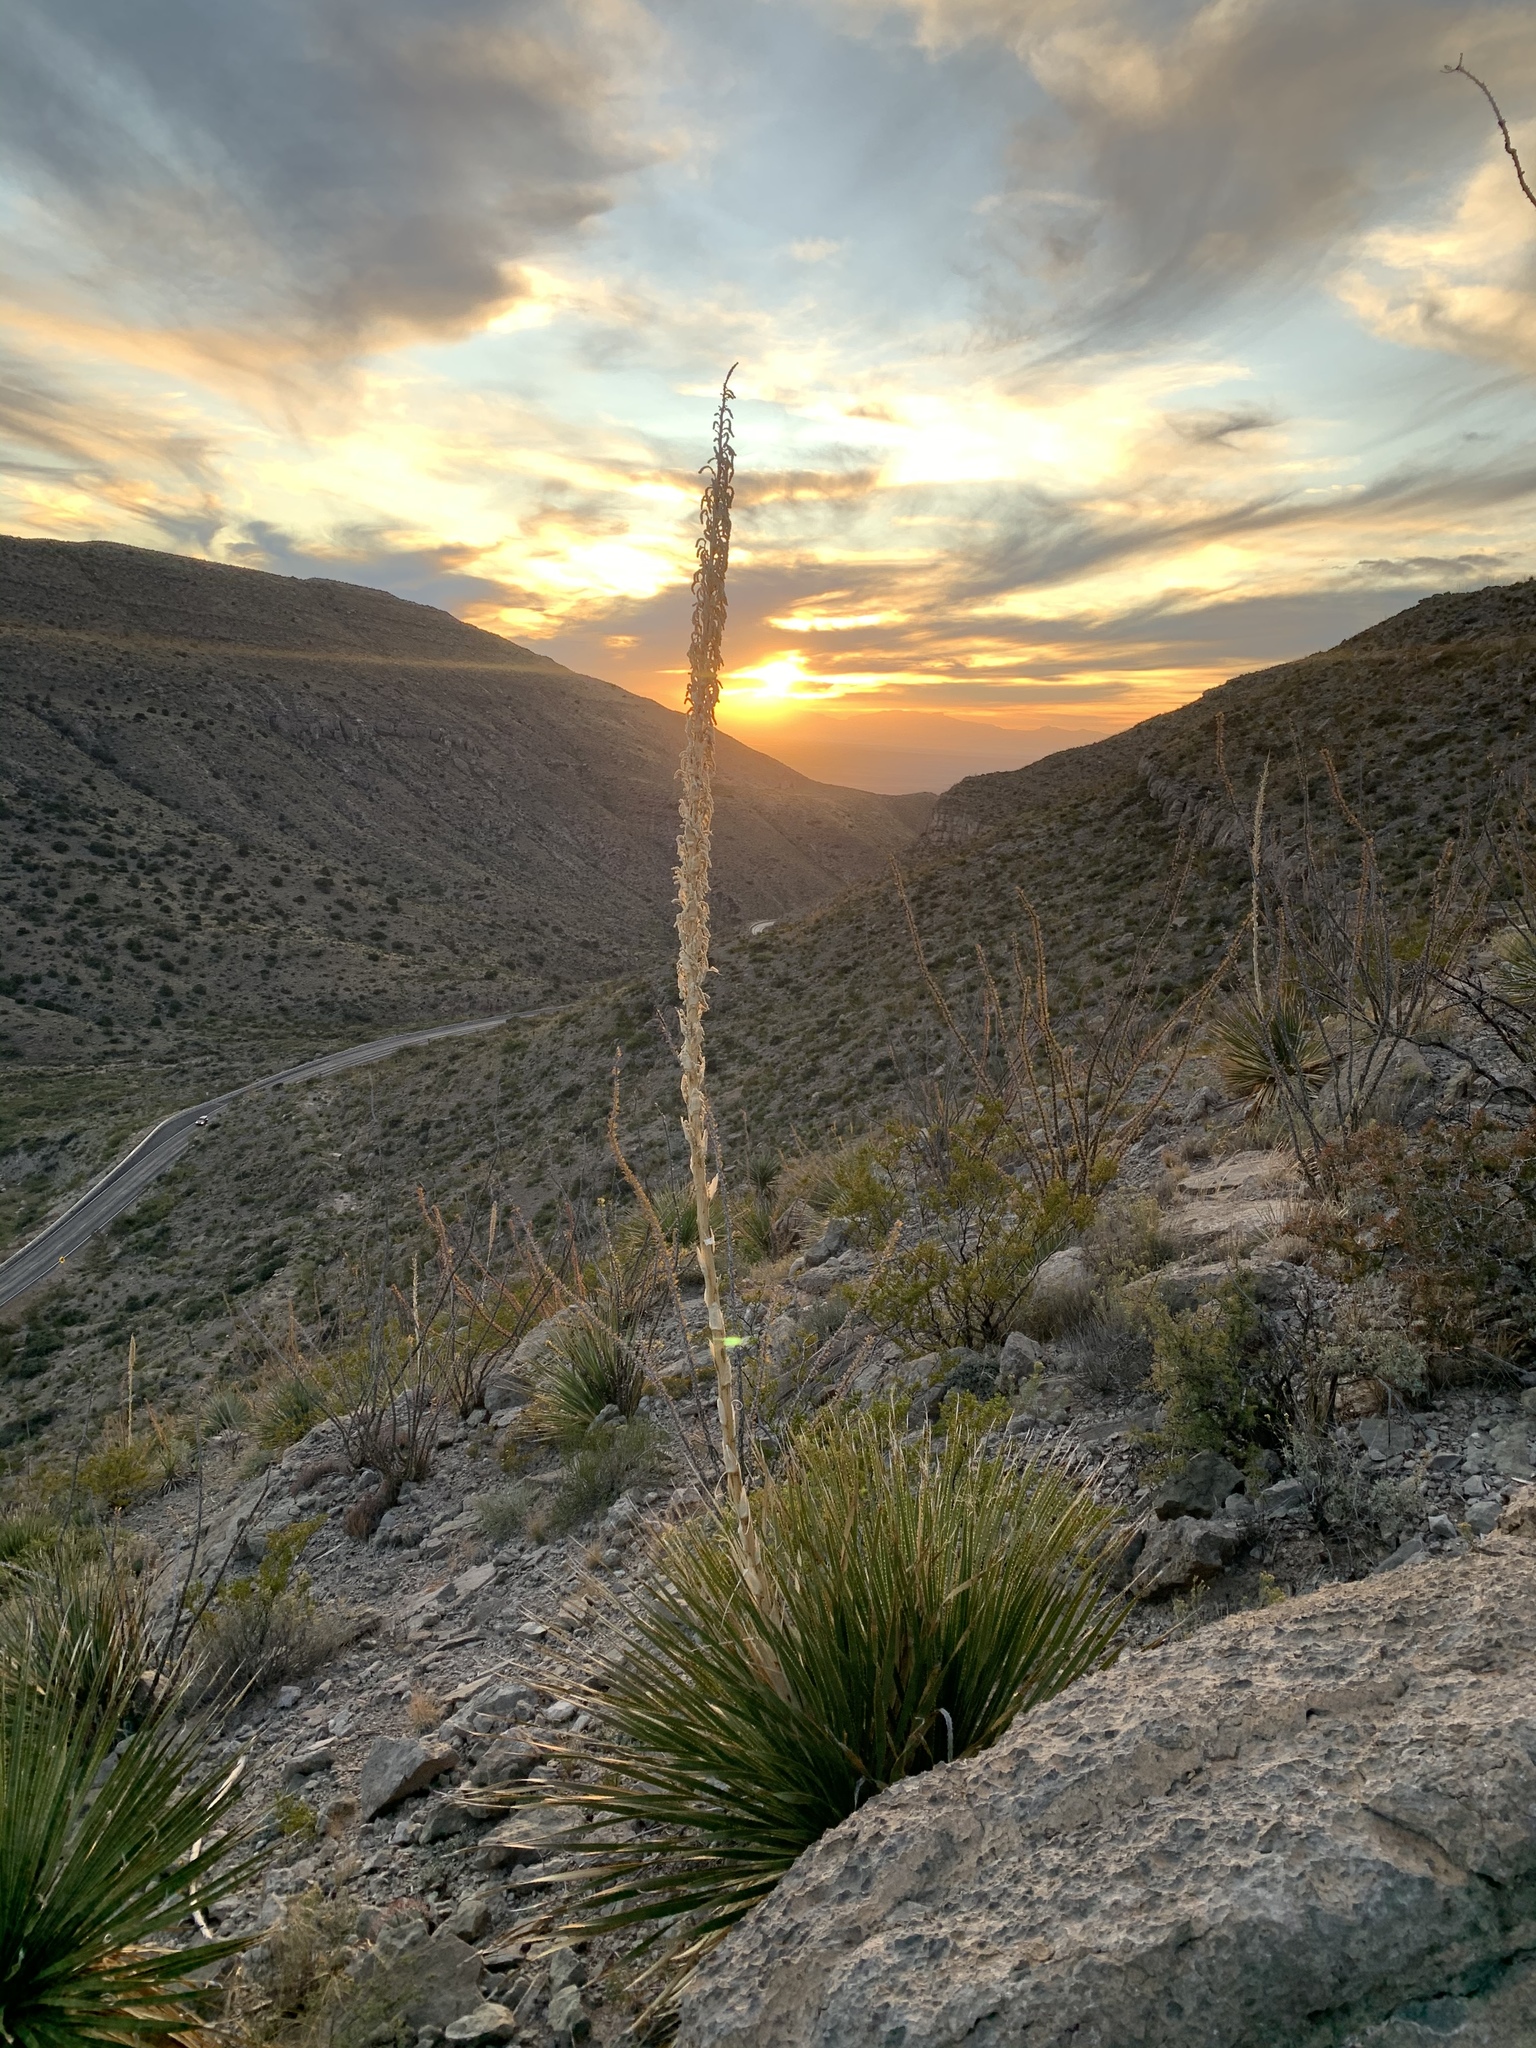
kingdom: Plantae
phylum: Tracheophyta
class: Liliopsida
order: Asparagales
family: Asparagaceae
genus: Dasylirion
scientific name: Dasylirion wheeleri
